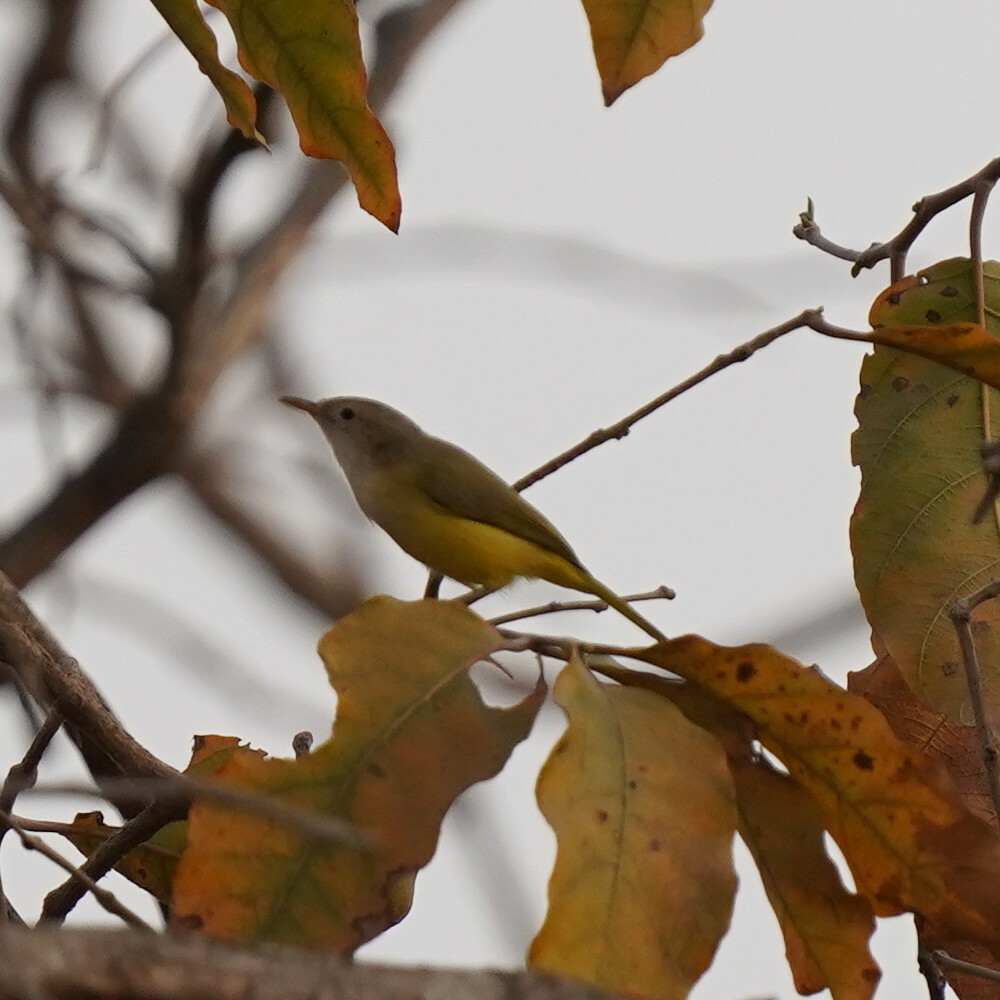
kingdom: Animalia
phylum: Chordata
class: Aves
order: Passeriformes
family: Cisticolidae
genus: Eremomela
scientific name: Eremomela pusilla
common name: Senegal eremomela
